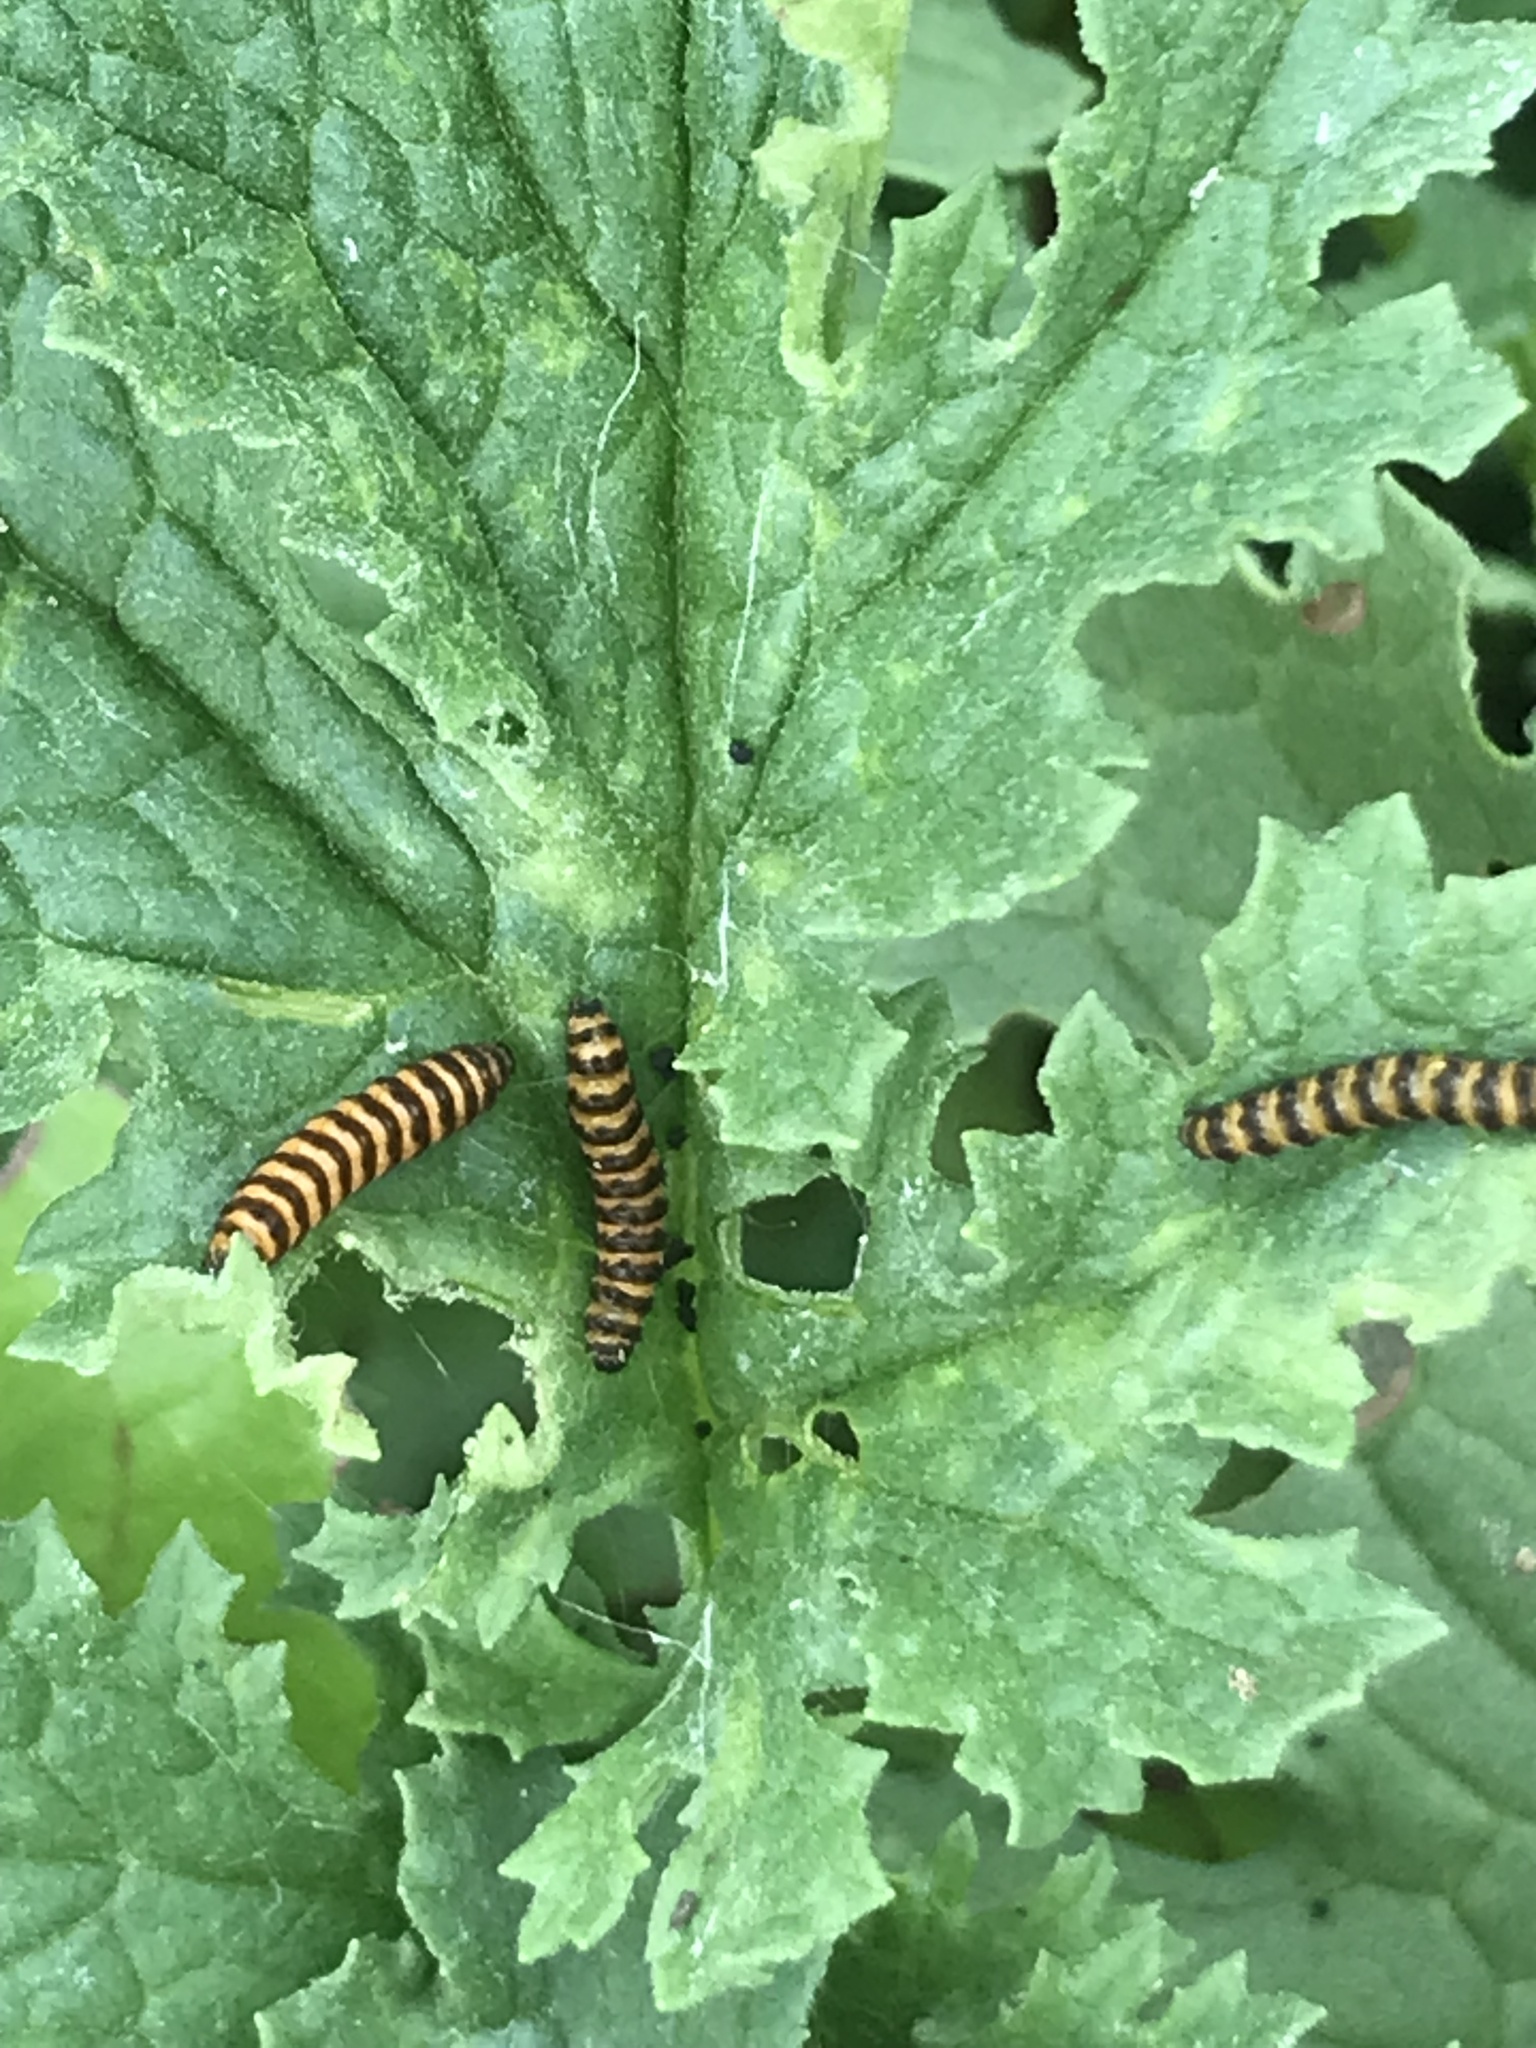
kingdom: Animalia
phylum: Arthropoda
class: Insecta
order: Lepidoptera
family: Erebidae
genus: Tyria
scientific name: Tyria jacobaeae
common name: Cinnabar
